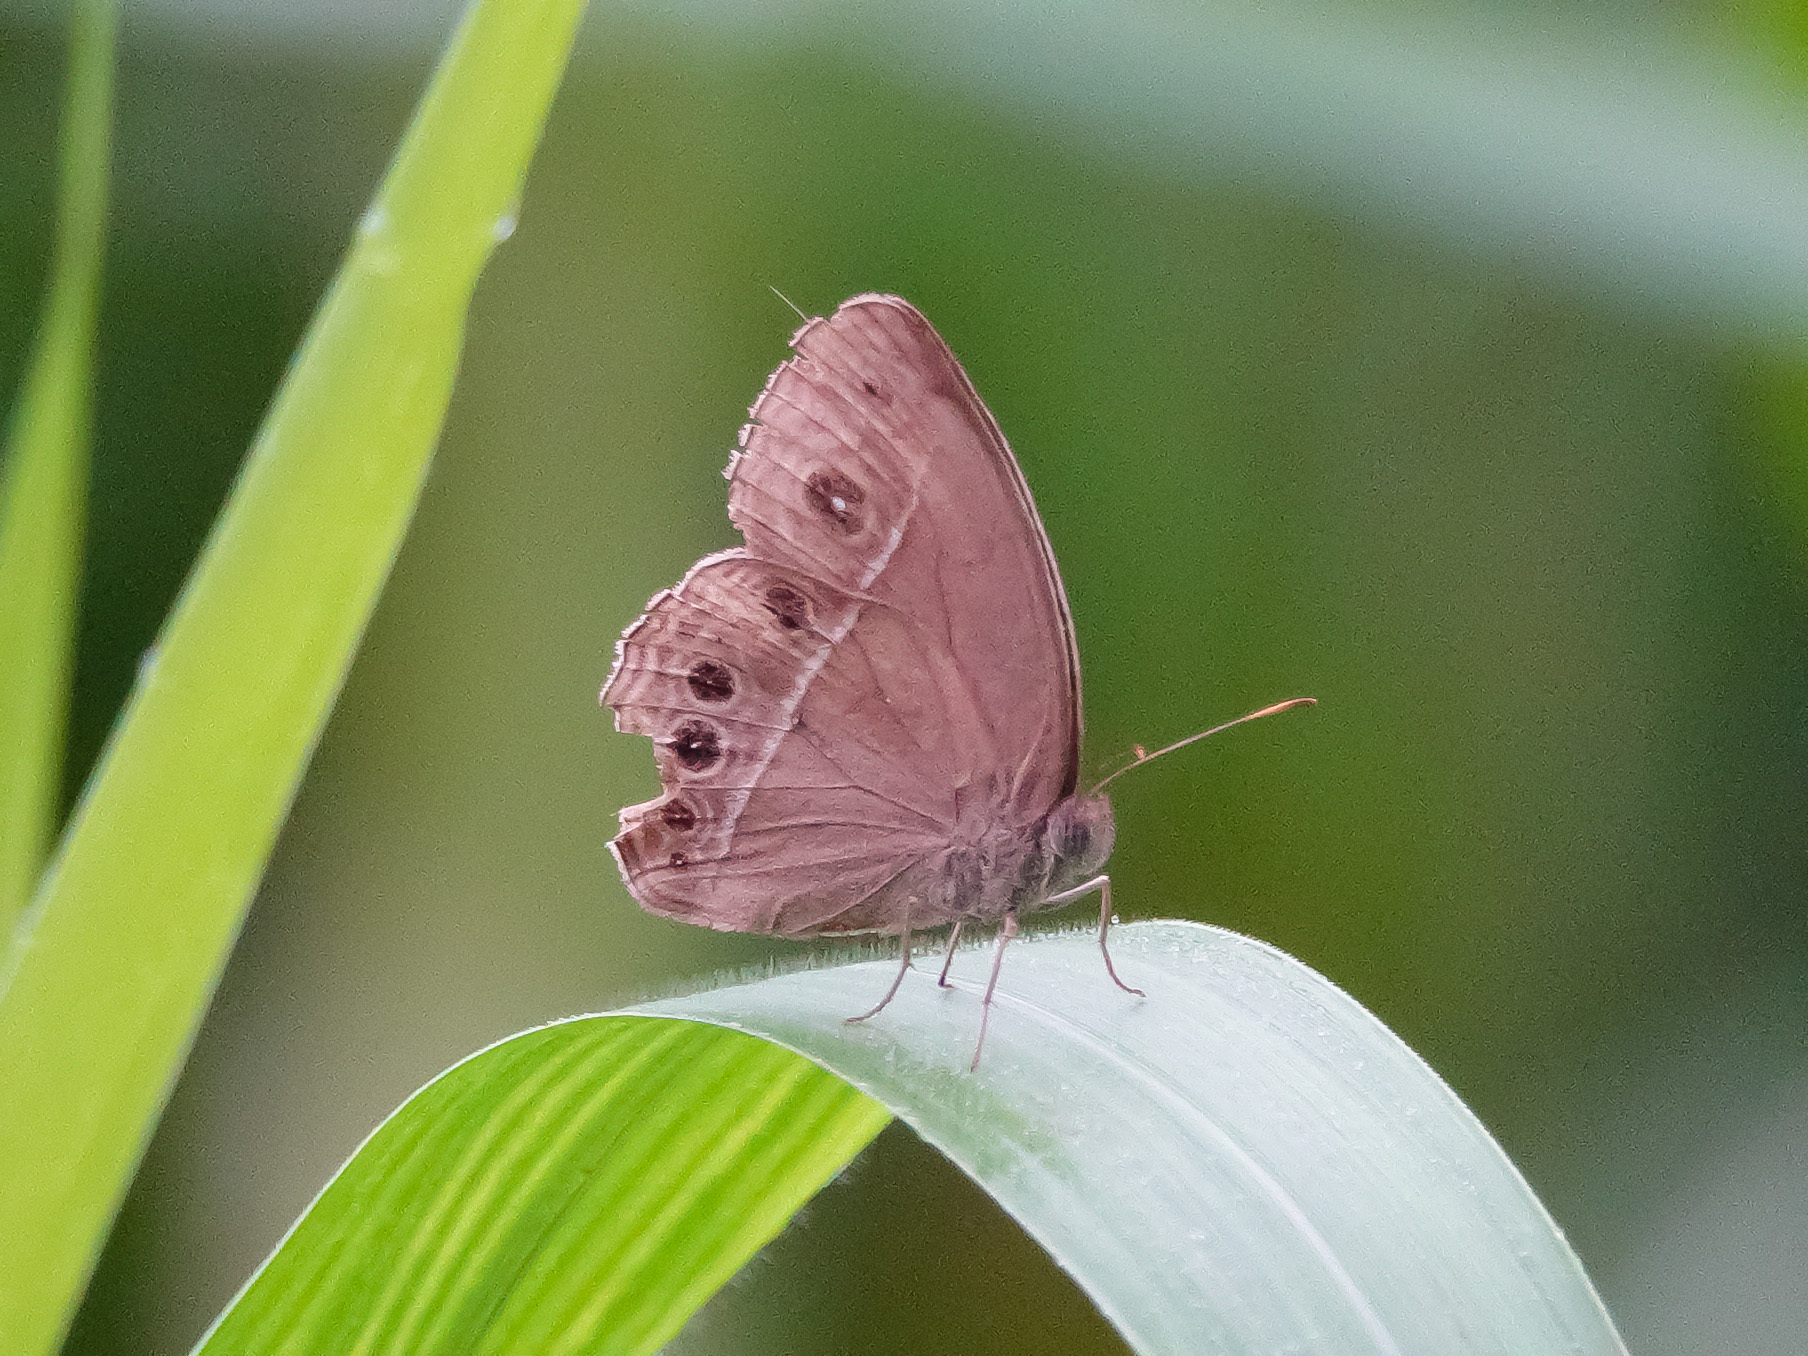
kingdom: Animalia
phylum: Arthropoda
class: Insecta
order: Lepidoptera
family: Nymphalidae
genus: Mycalesis
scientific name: Mycalesis mineus
